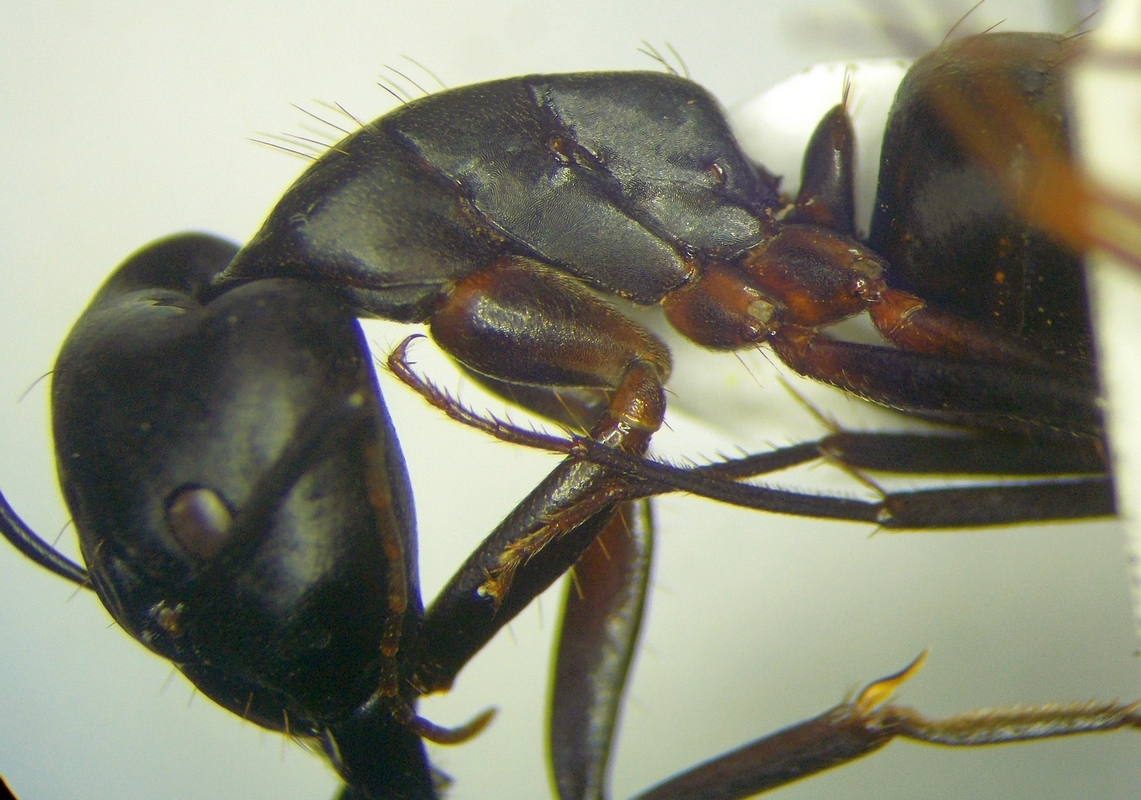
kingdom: Animalia
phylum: Arthropoda
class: Insecta
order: Hymenoptera
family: Formicidae
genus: Camponotus
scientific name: Camponotus sanctus
